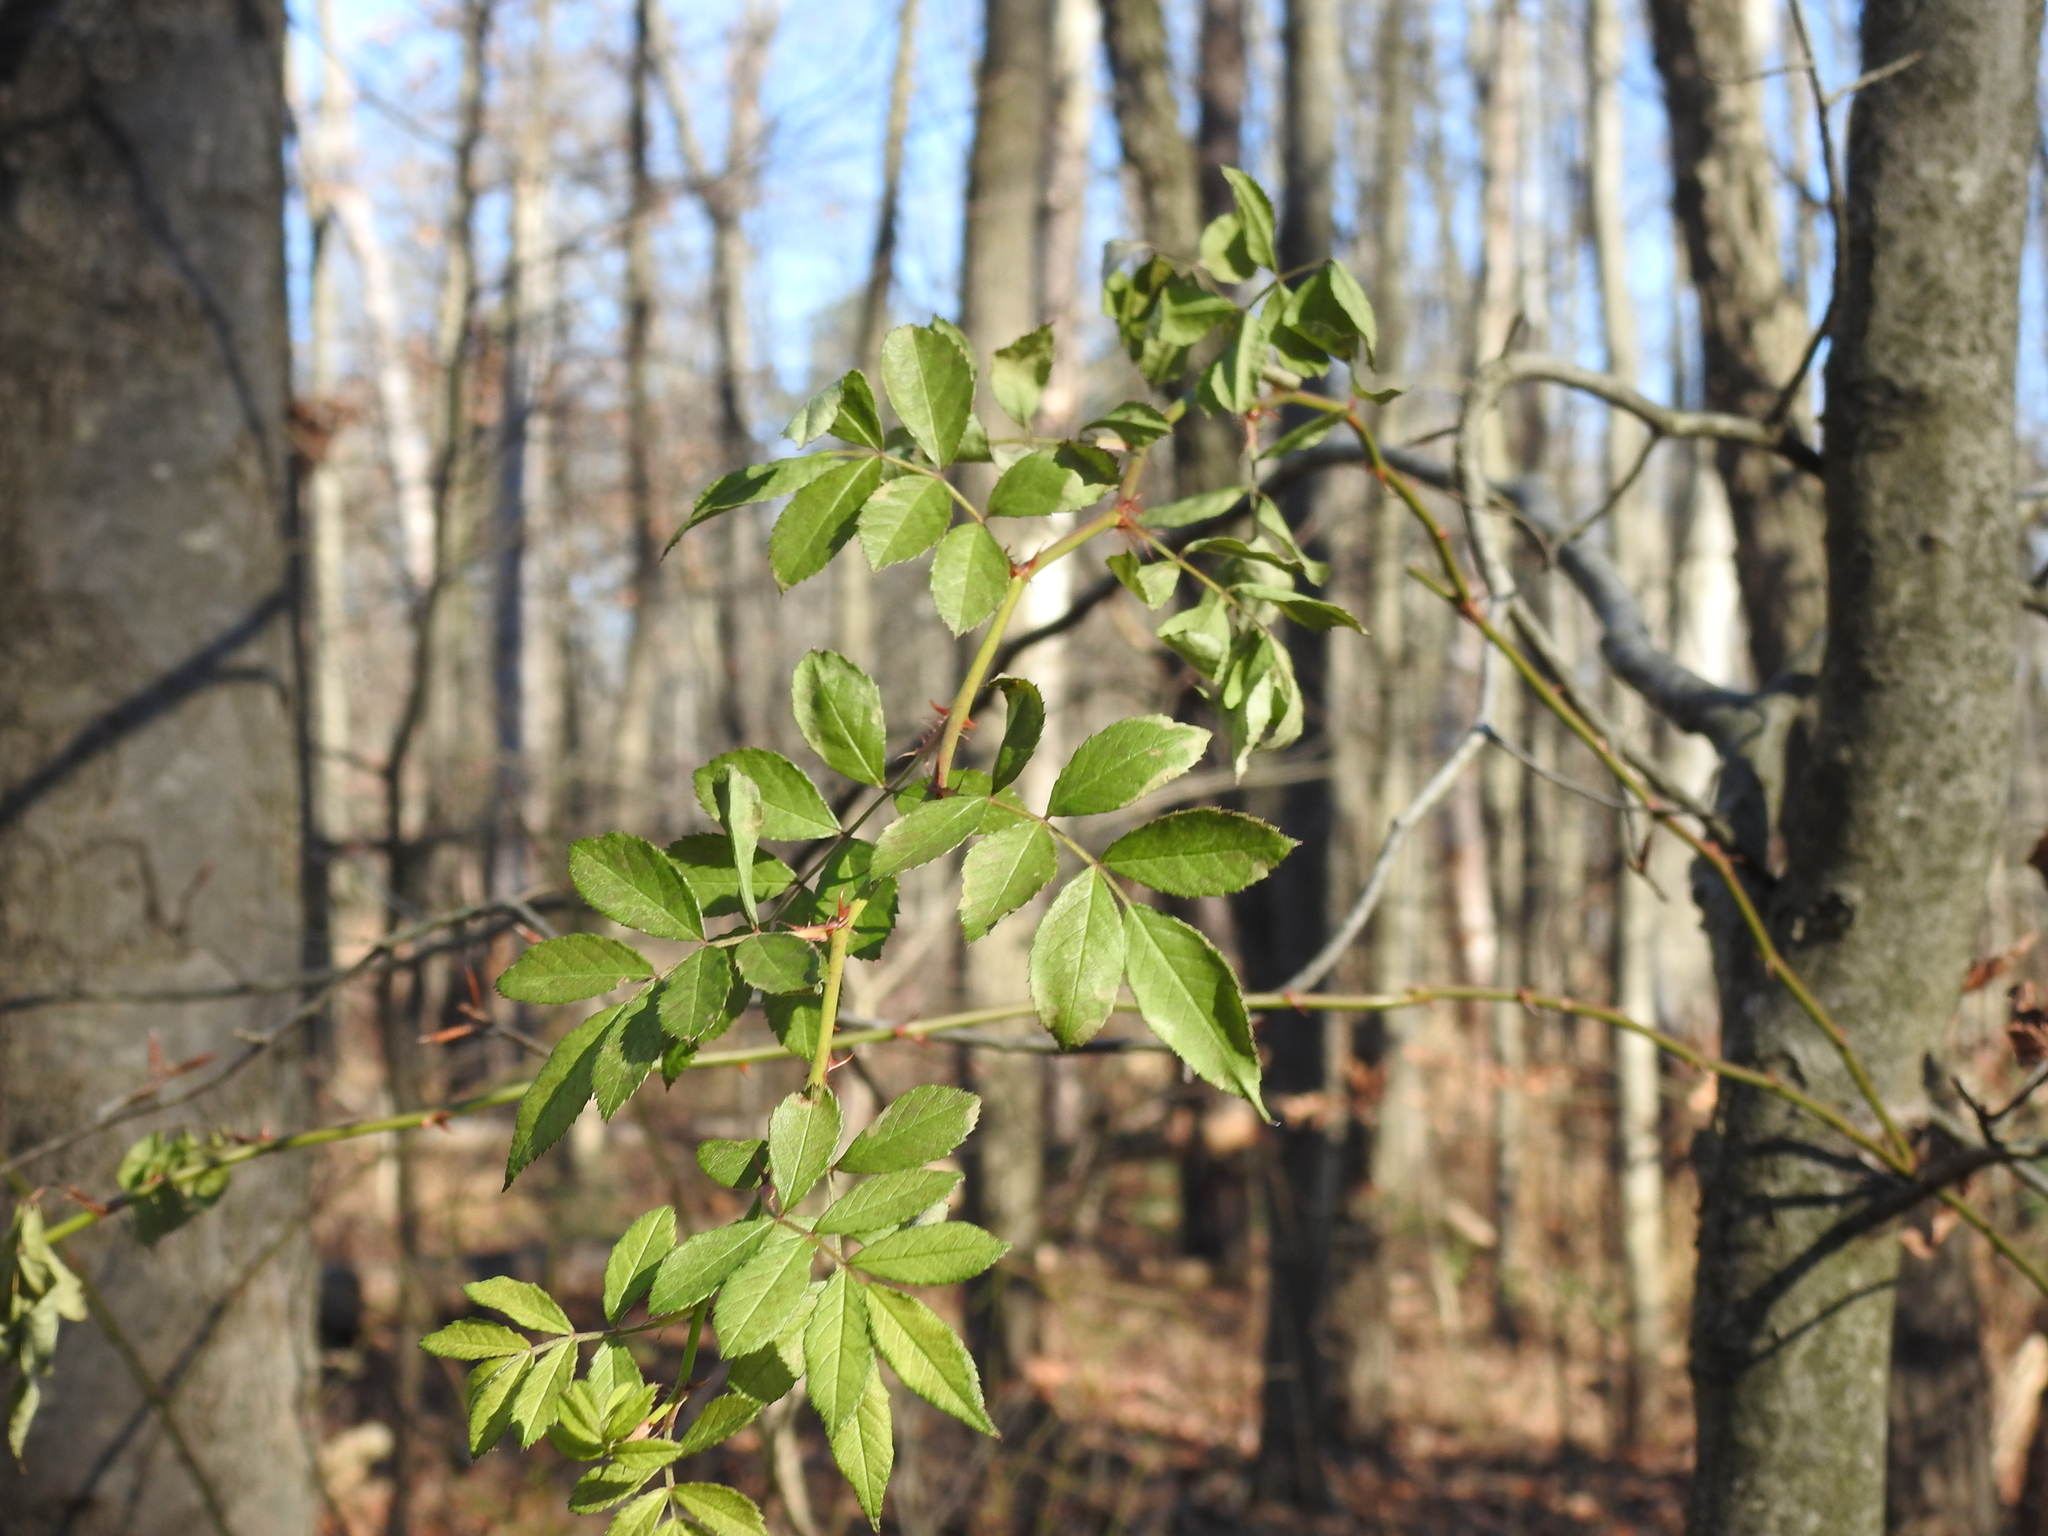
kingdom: Plantae
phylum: Tracheophyta
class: Magnoliopsida
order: Rosales
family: Rosaceae
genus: Rosa
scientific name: Rosa multiflora
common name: Multiflora rose
